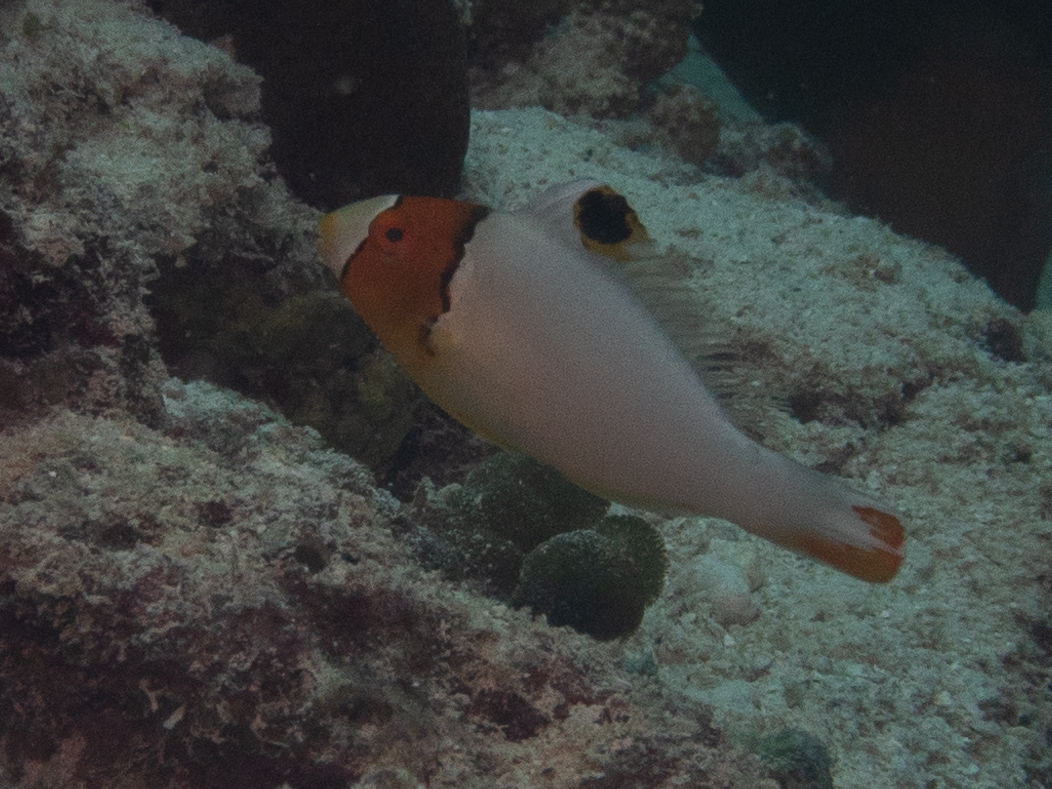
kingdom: Animalia
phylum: Chordata
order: Perciformes
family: Scaridae
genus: Cetoscarus
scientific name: Cetoscarus ocellatus
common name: Bicolor parrotfish
